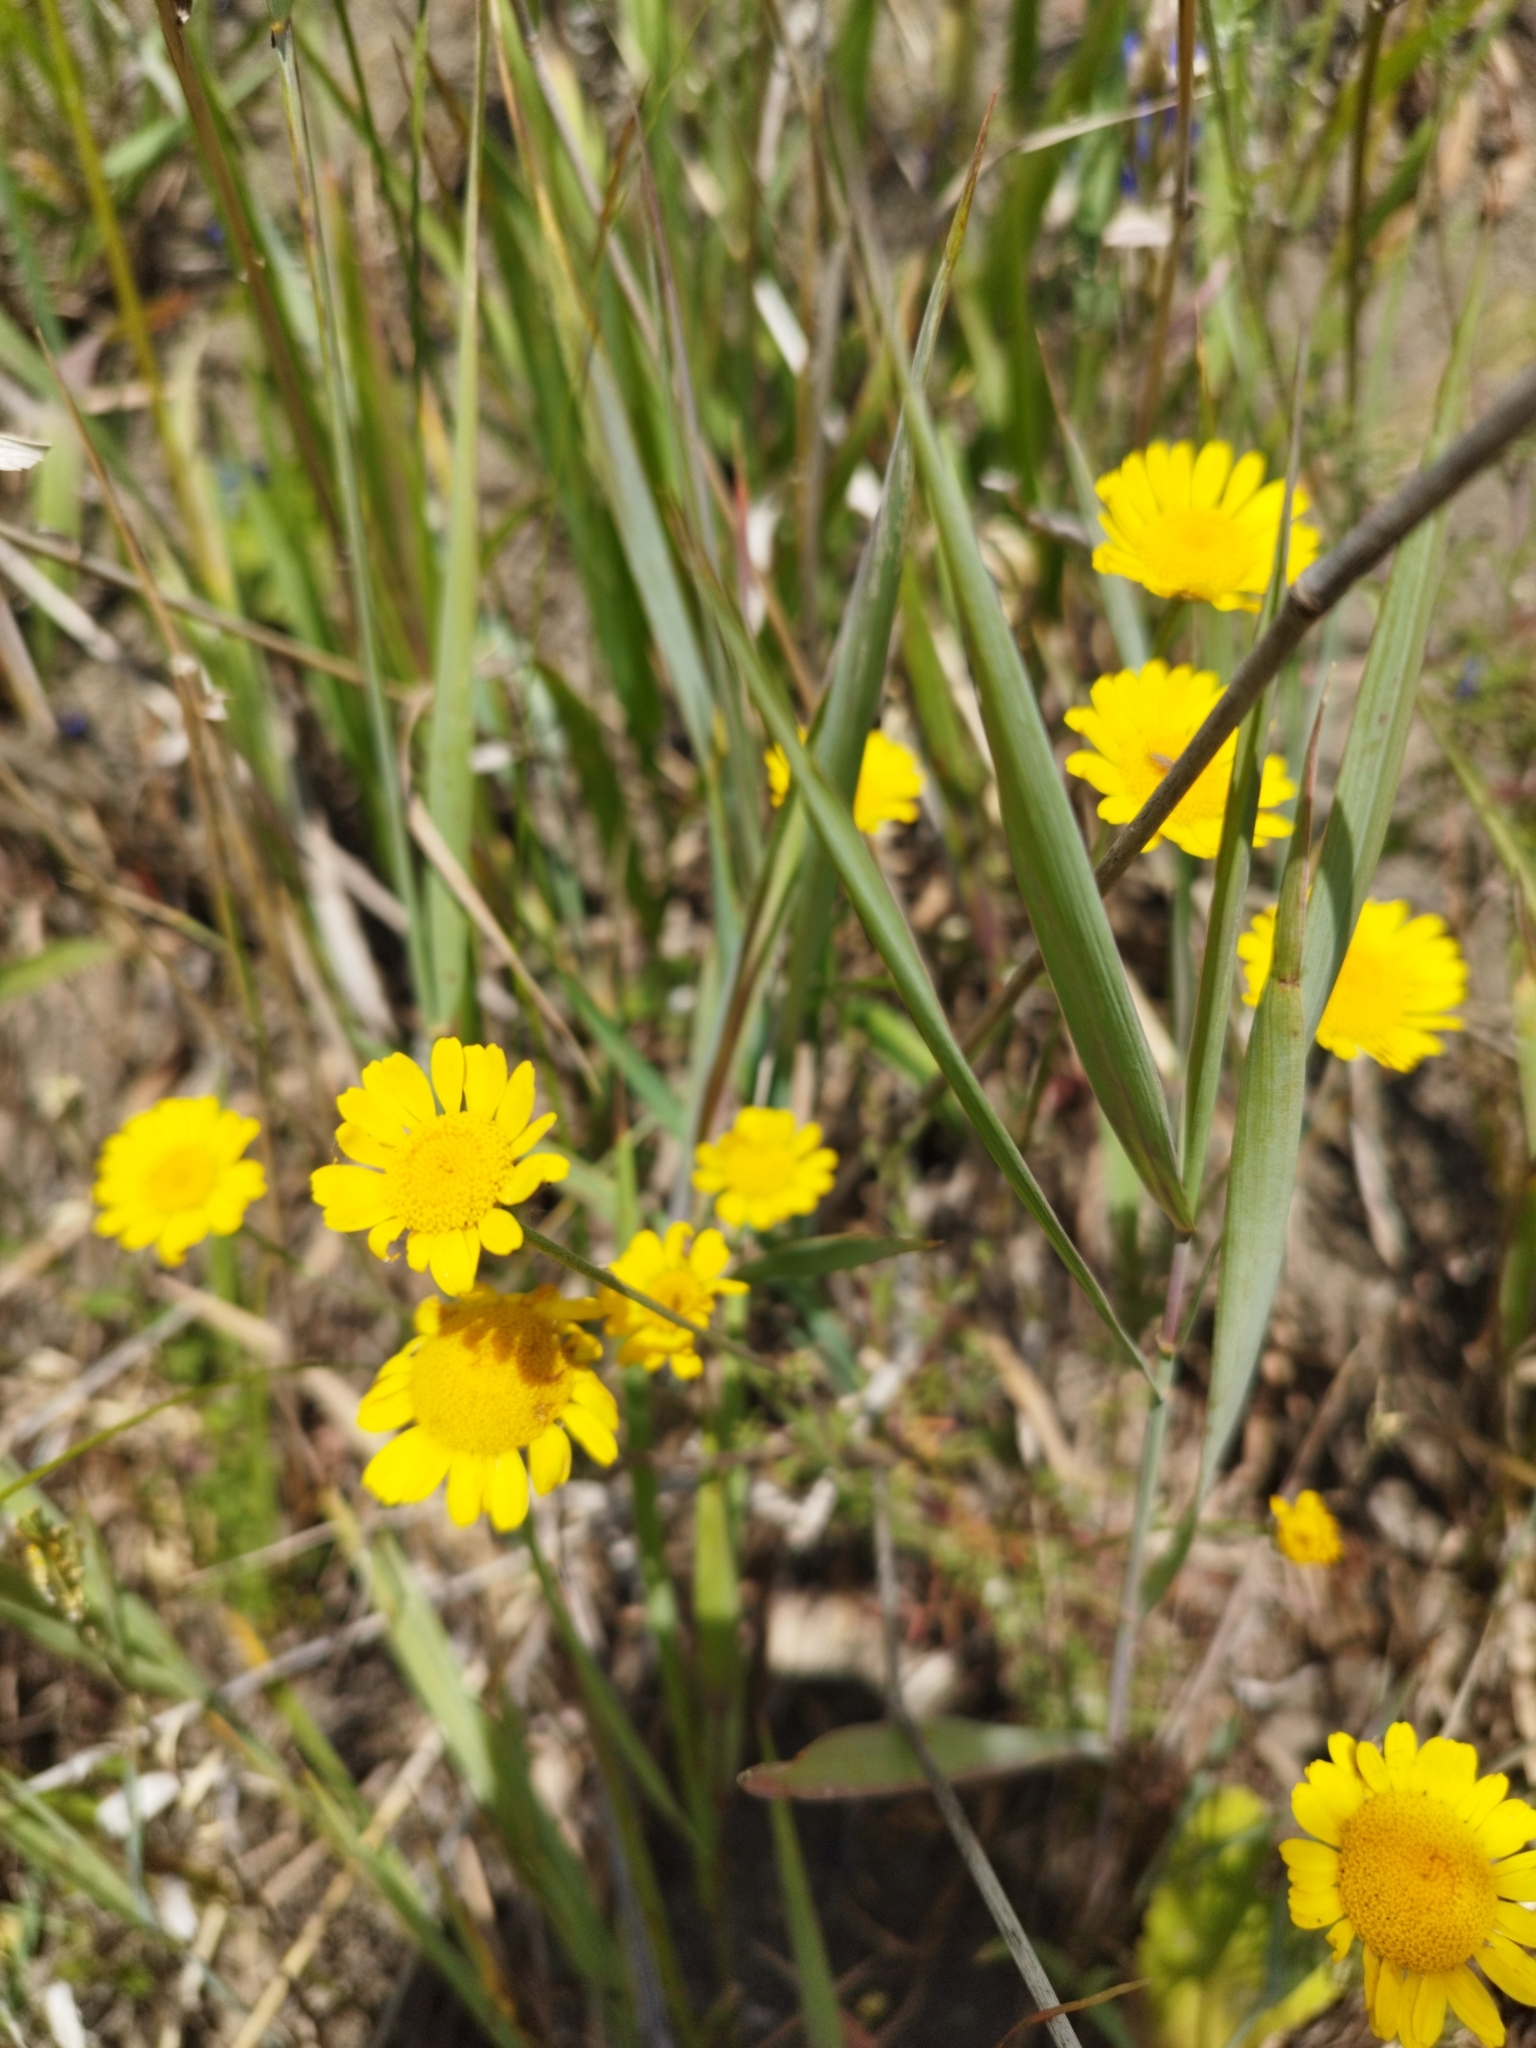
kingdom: Plantae
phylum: Tracheophyta
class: Magnoliopsida
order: Asterales
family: Asteraceae
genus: Cota
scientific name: Cota tinctoria
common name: Golden chamomile
